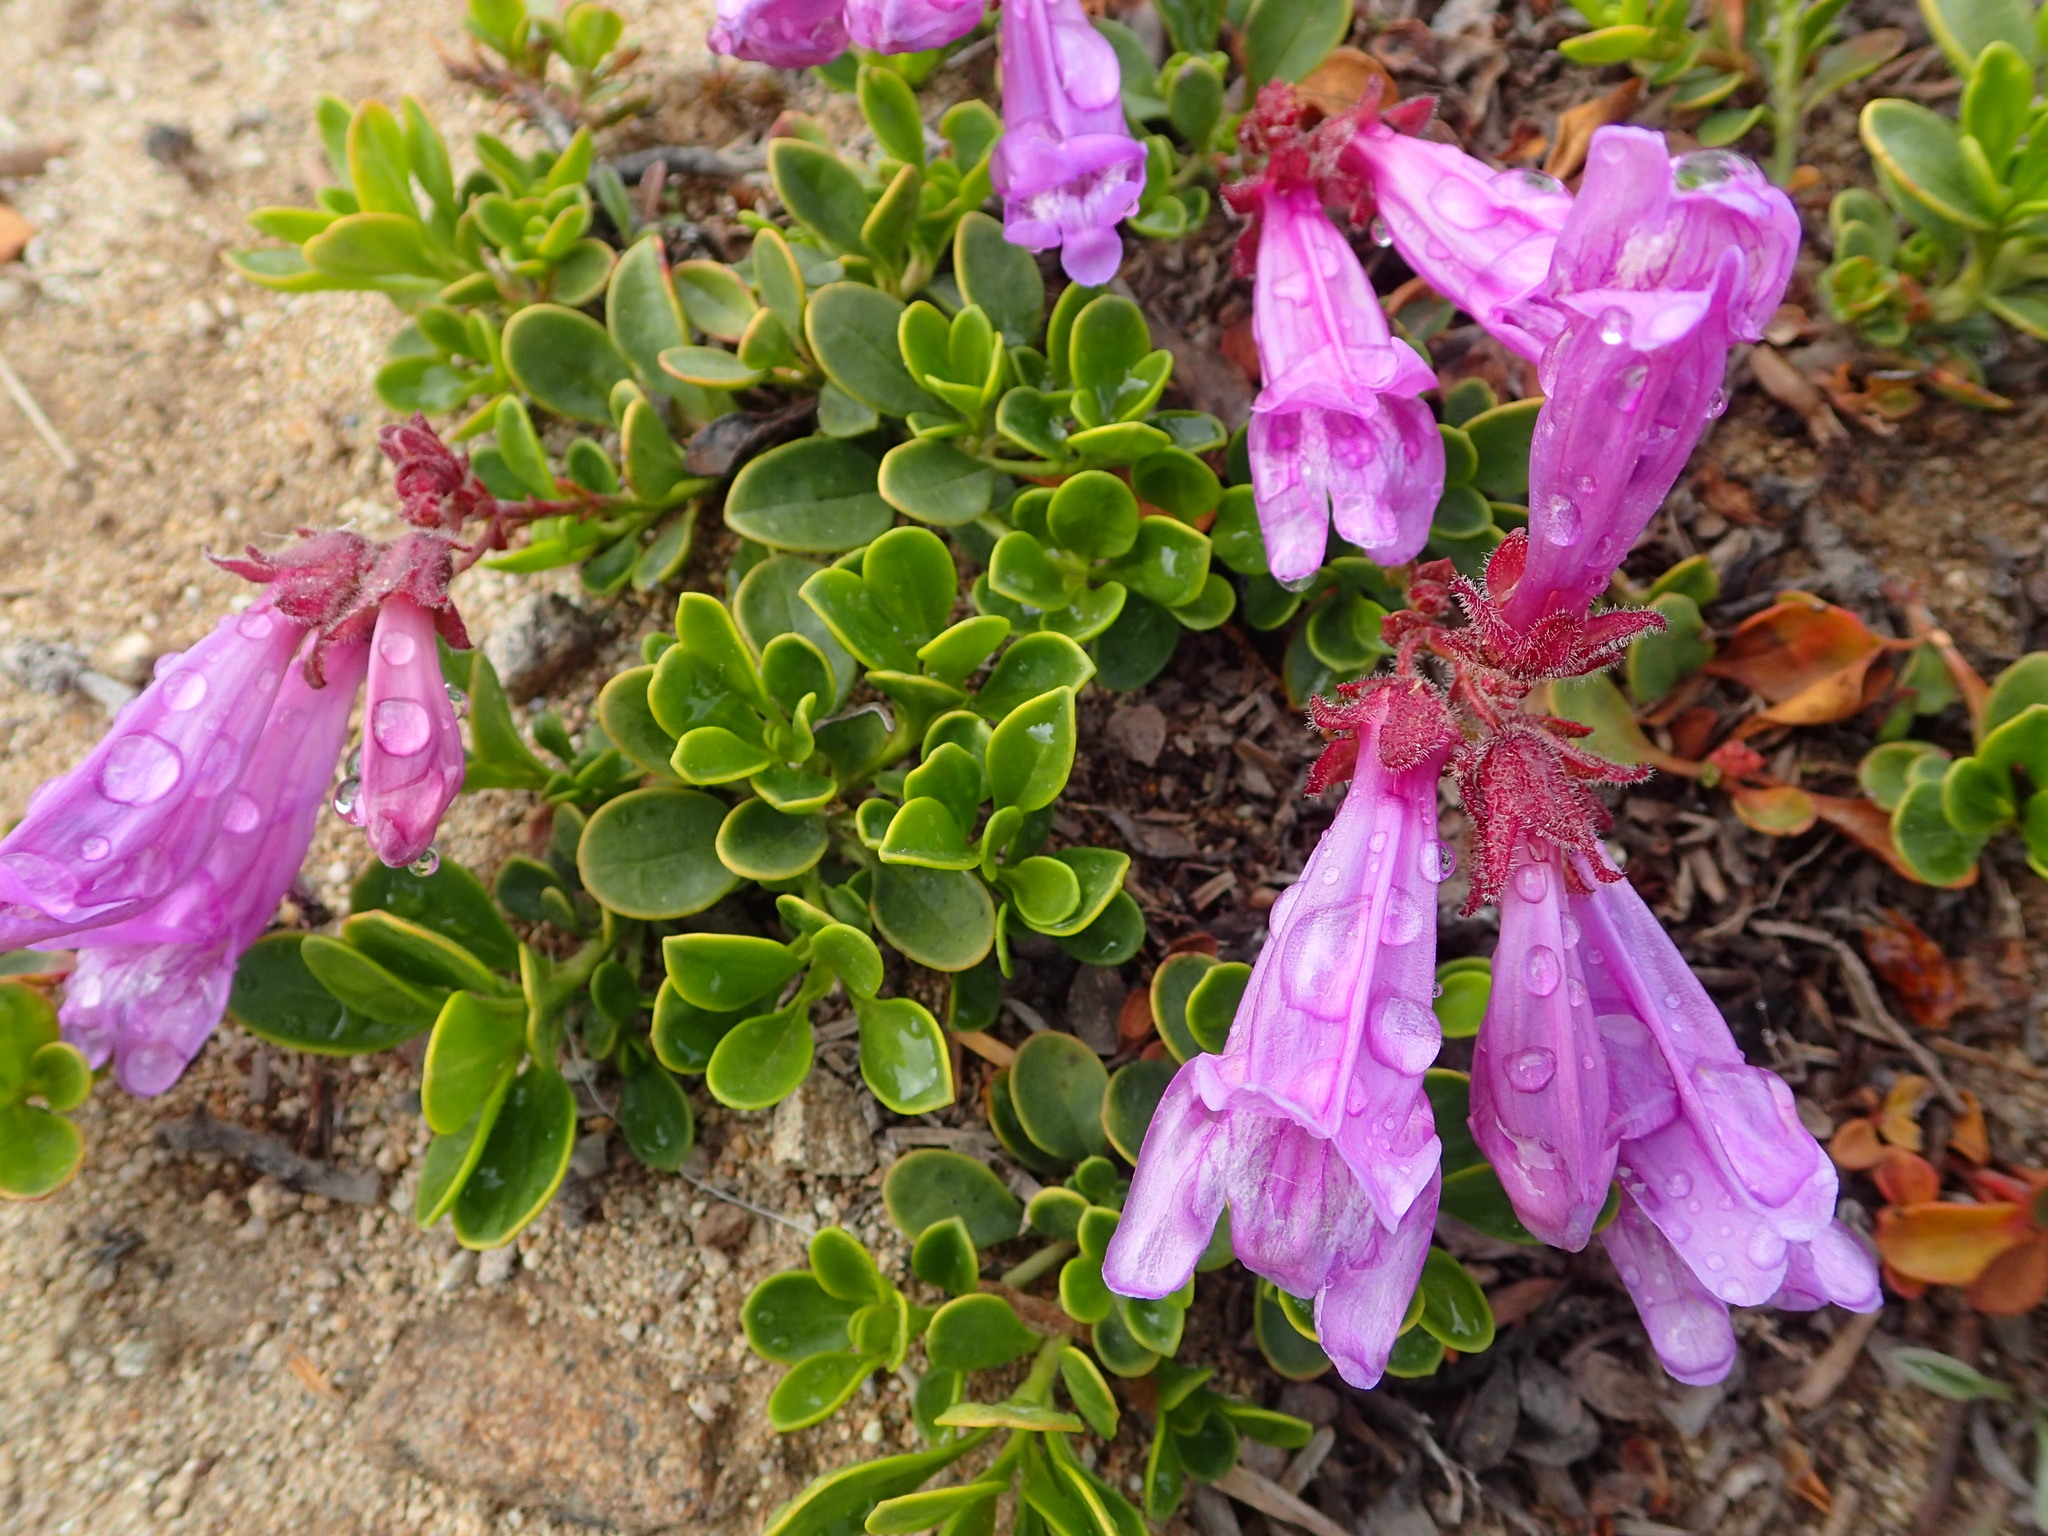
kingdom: Plantae
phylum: Tracheophyta
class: Magnoliopsida
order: Lamiales
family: Plantaginaceae
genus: Penstemon
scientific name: Penstemon davidsonii
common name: Davidson's penstemon
